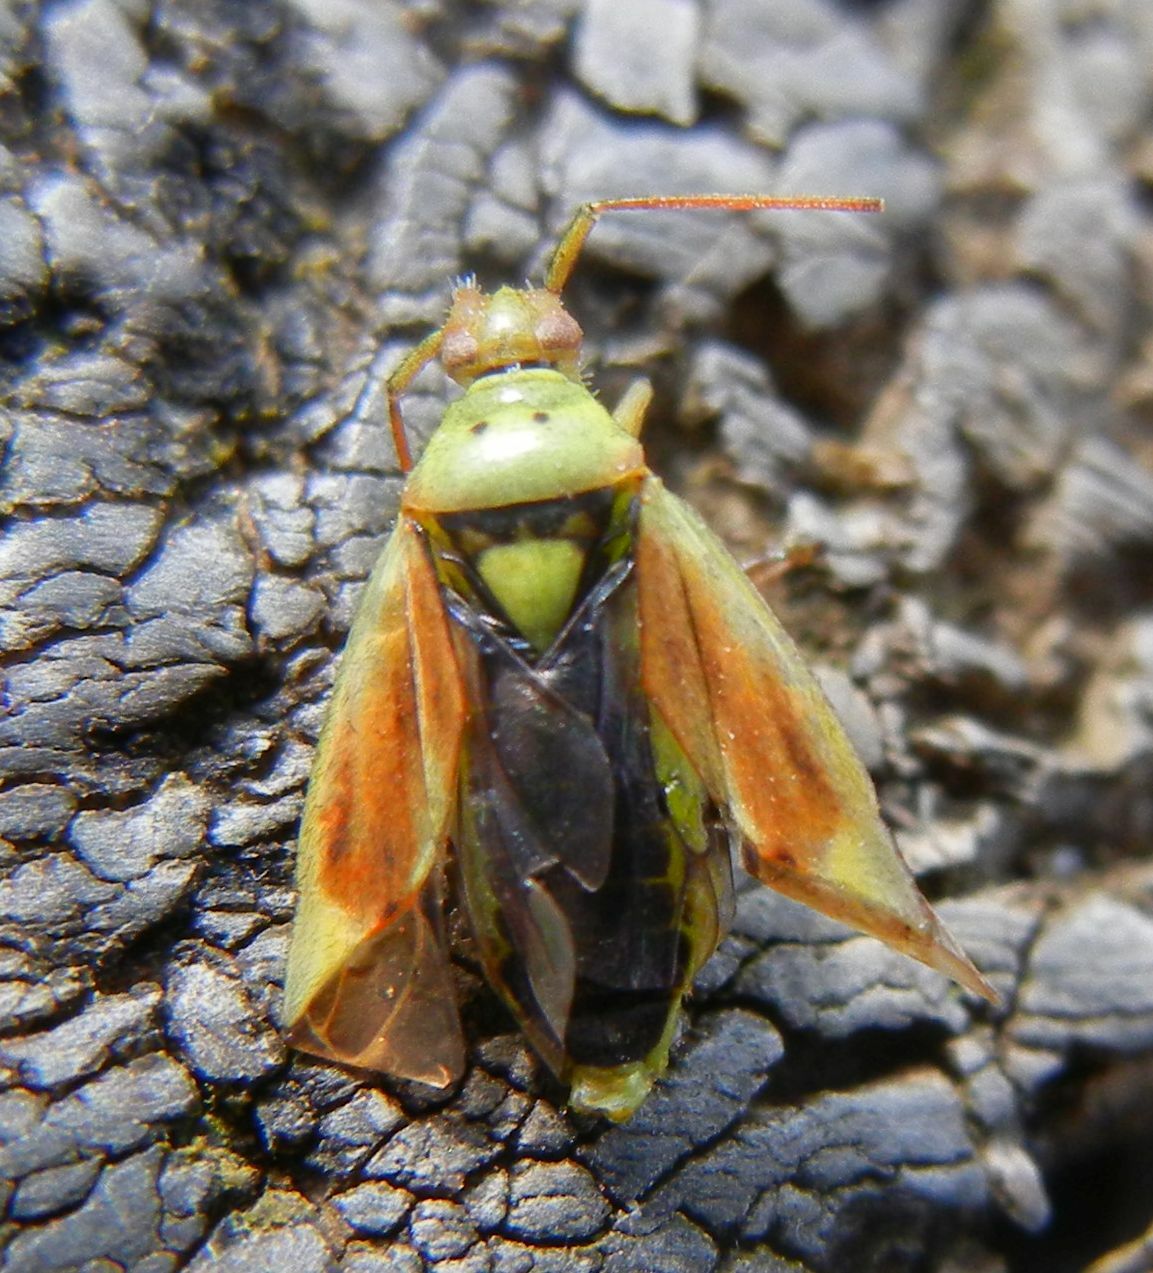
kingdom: Animalia
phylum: Arthropoda
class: Insecta
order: Hemiptera
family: Miridae
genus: Closterotomus
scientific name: Closterotomus norvegicus
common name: Plant bug
